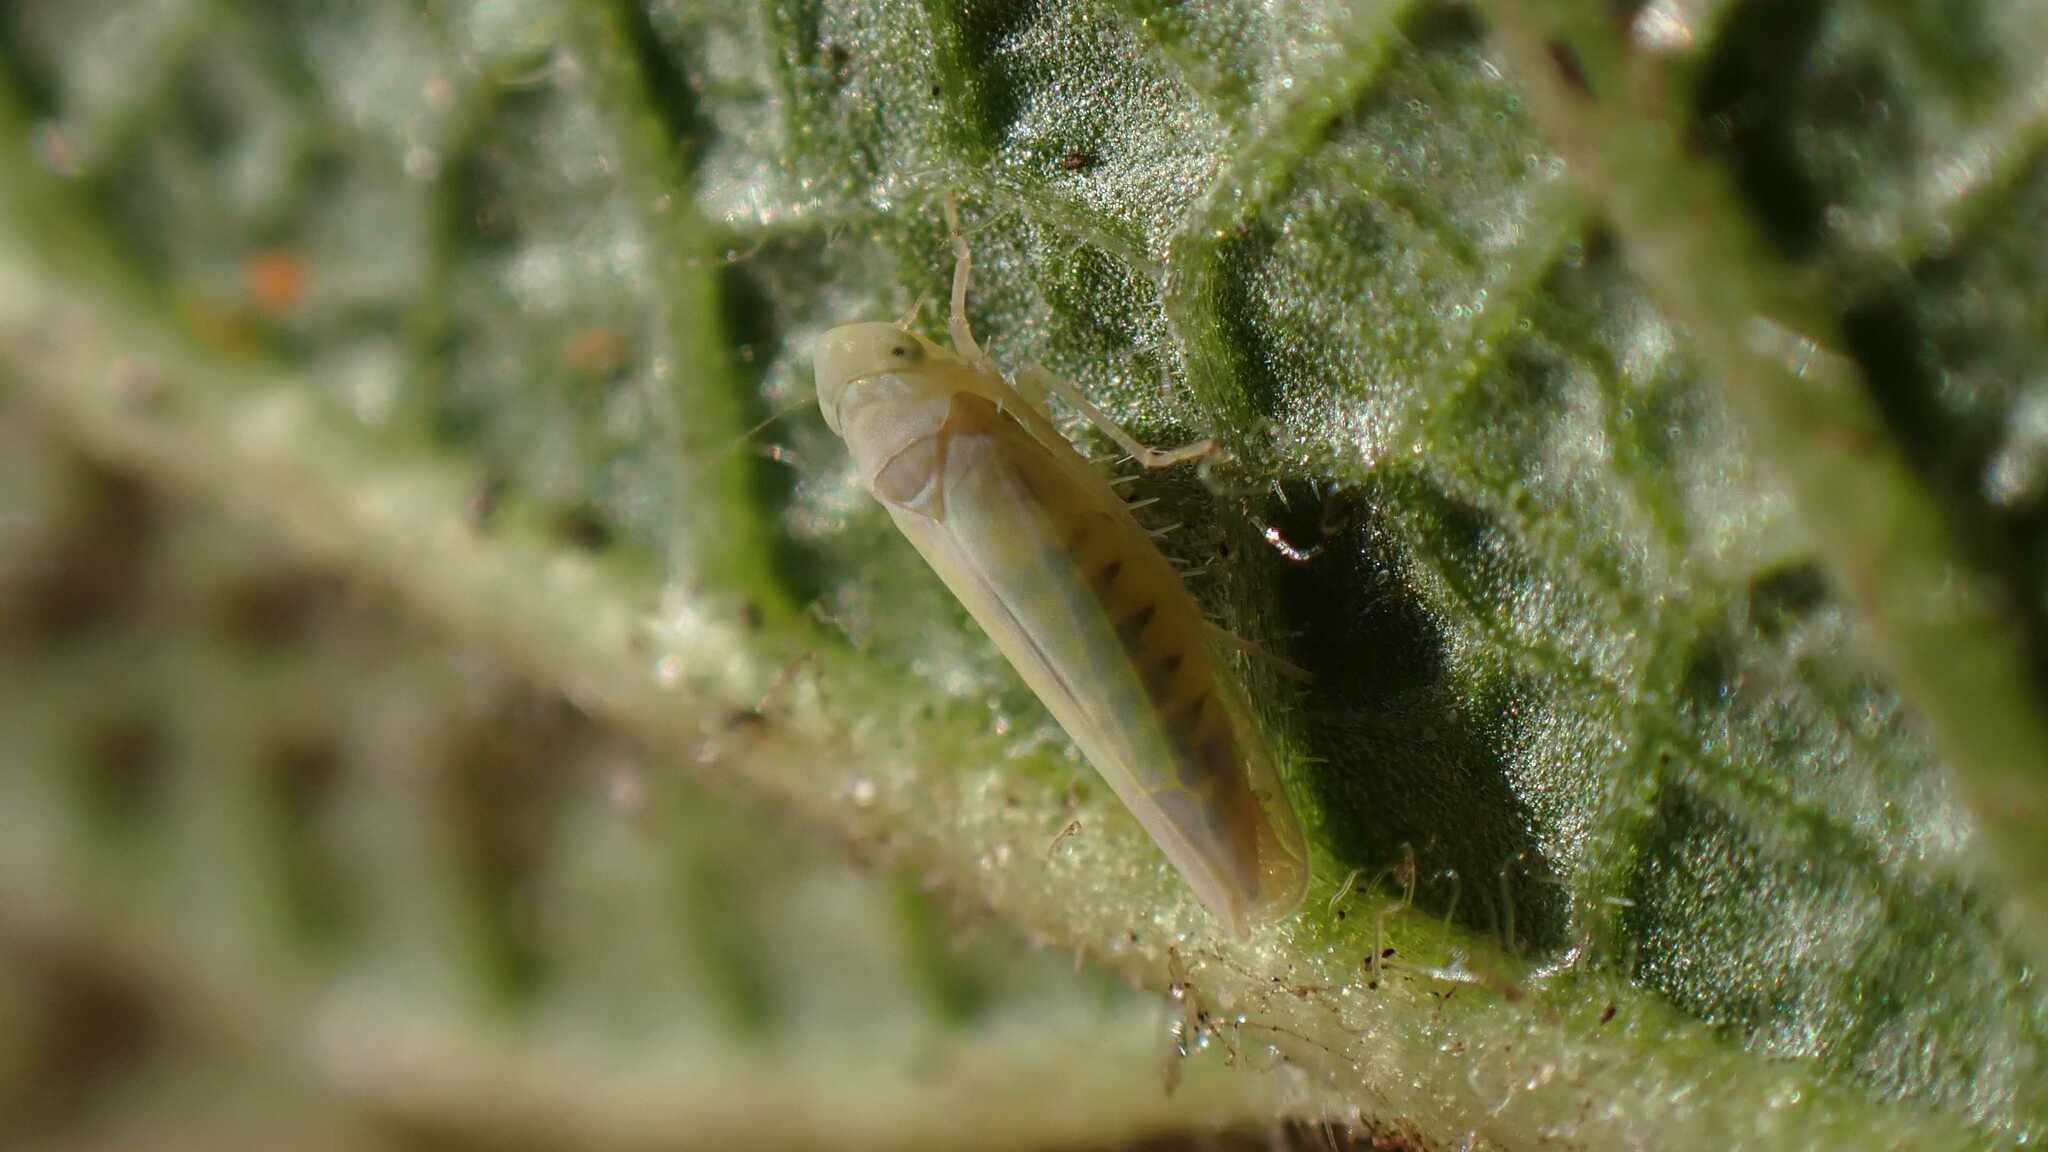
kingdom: Animalia
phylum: Arthropoda
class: Insecta
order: Hemiptera
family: Cicadellidae
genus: Emelyanoviana
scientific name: Emelyanoviana mollicula
